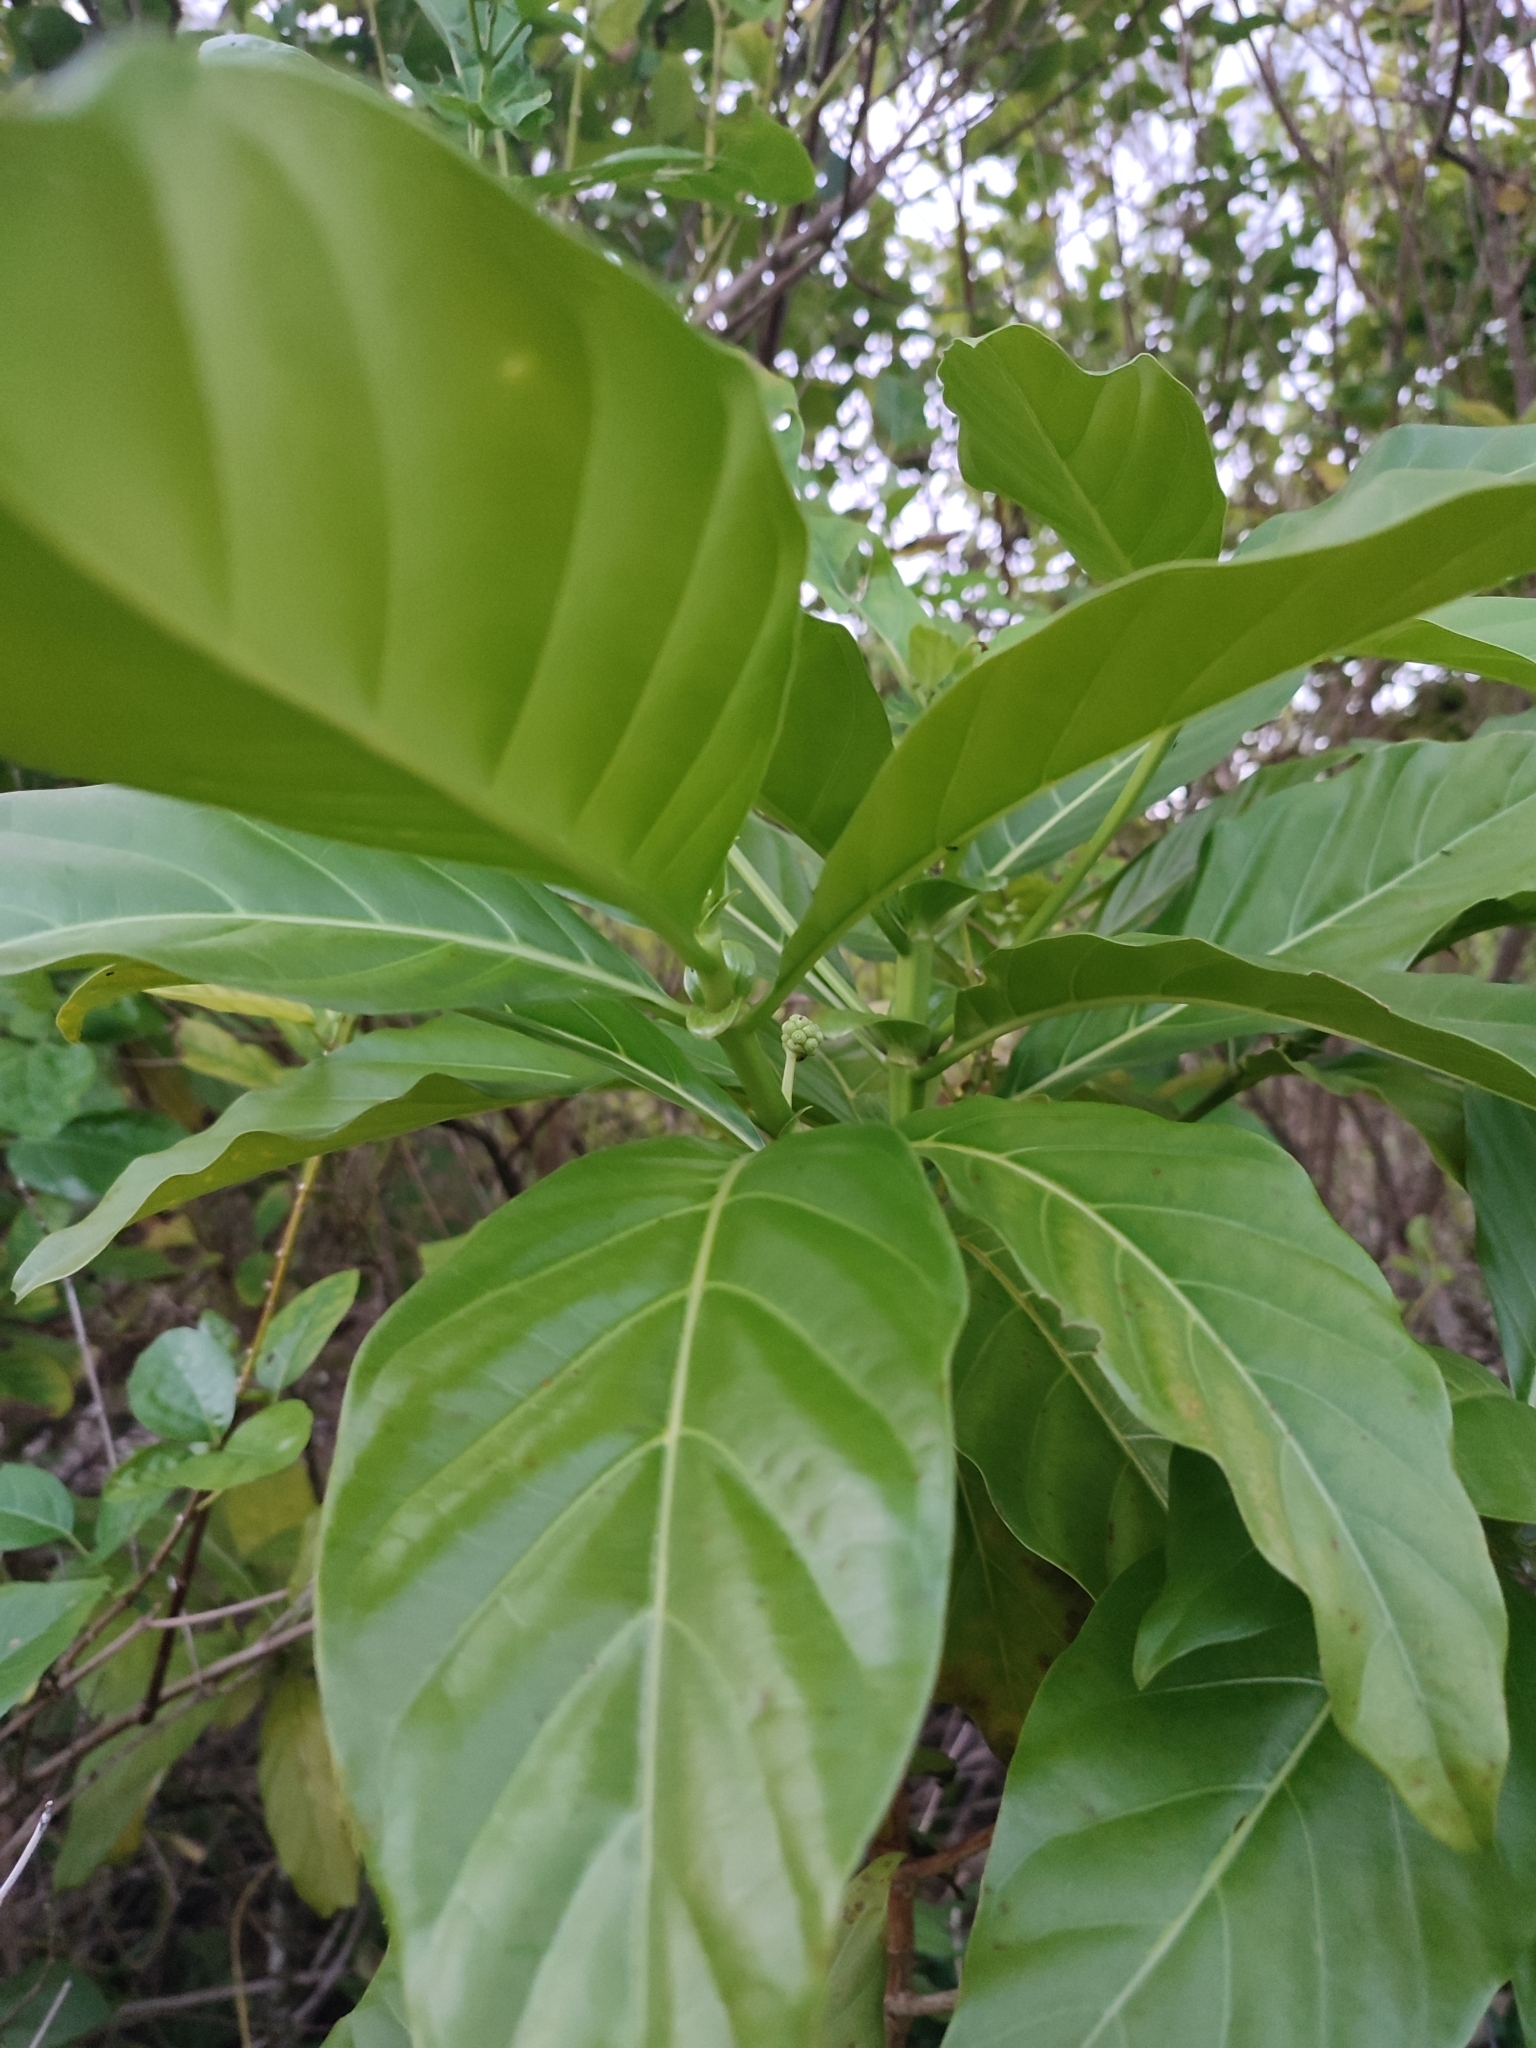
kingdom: Plantae
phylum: Tracheophyta
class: Magnoliopsida
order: Gentianales
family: Rubiaceae
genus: Morinda
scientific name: Morinda citrifolia
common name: Indian-mulberry
